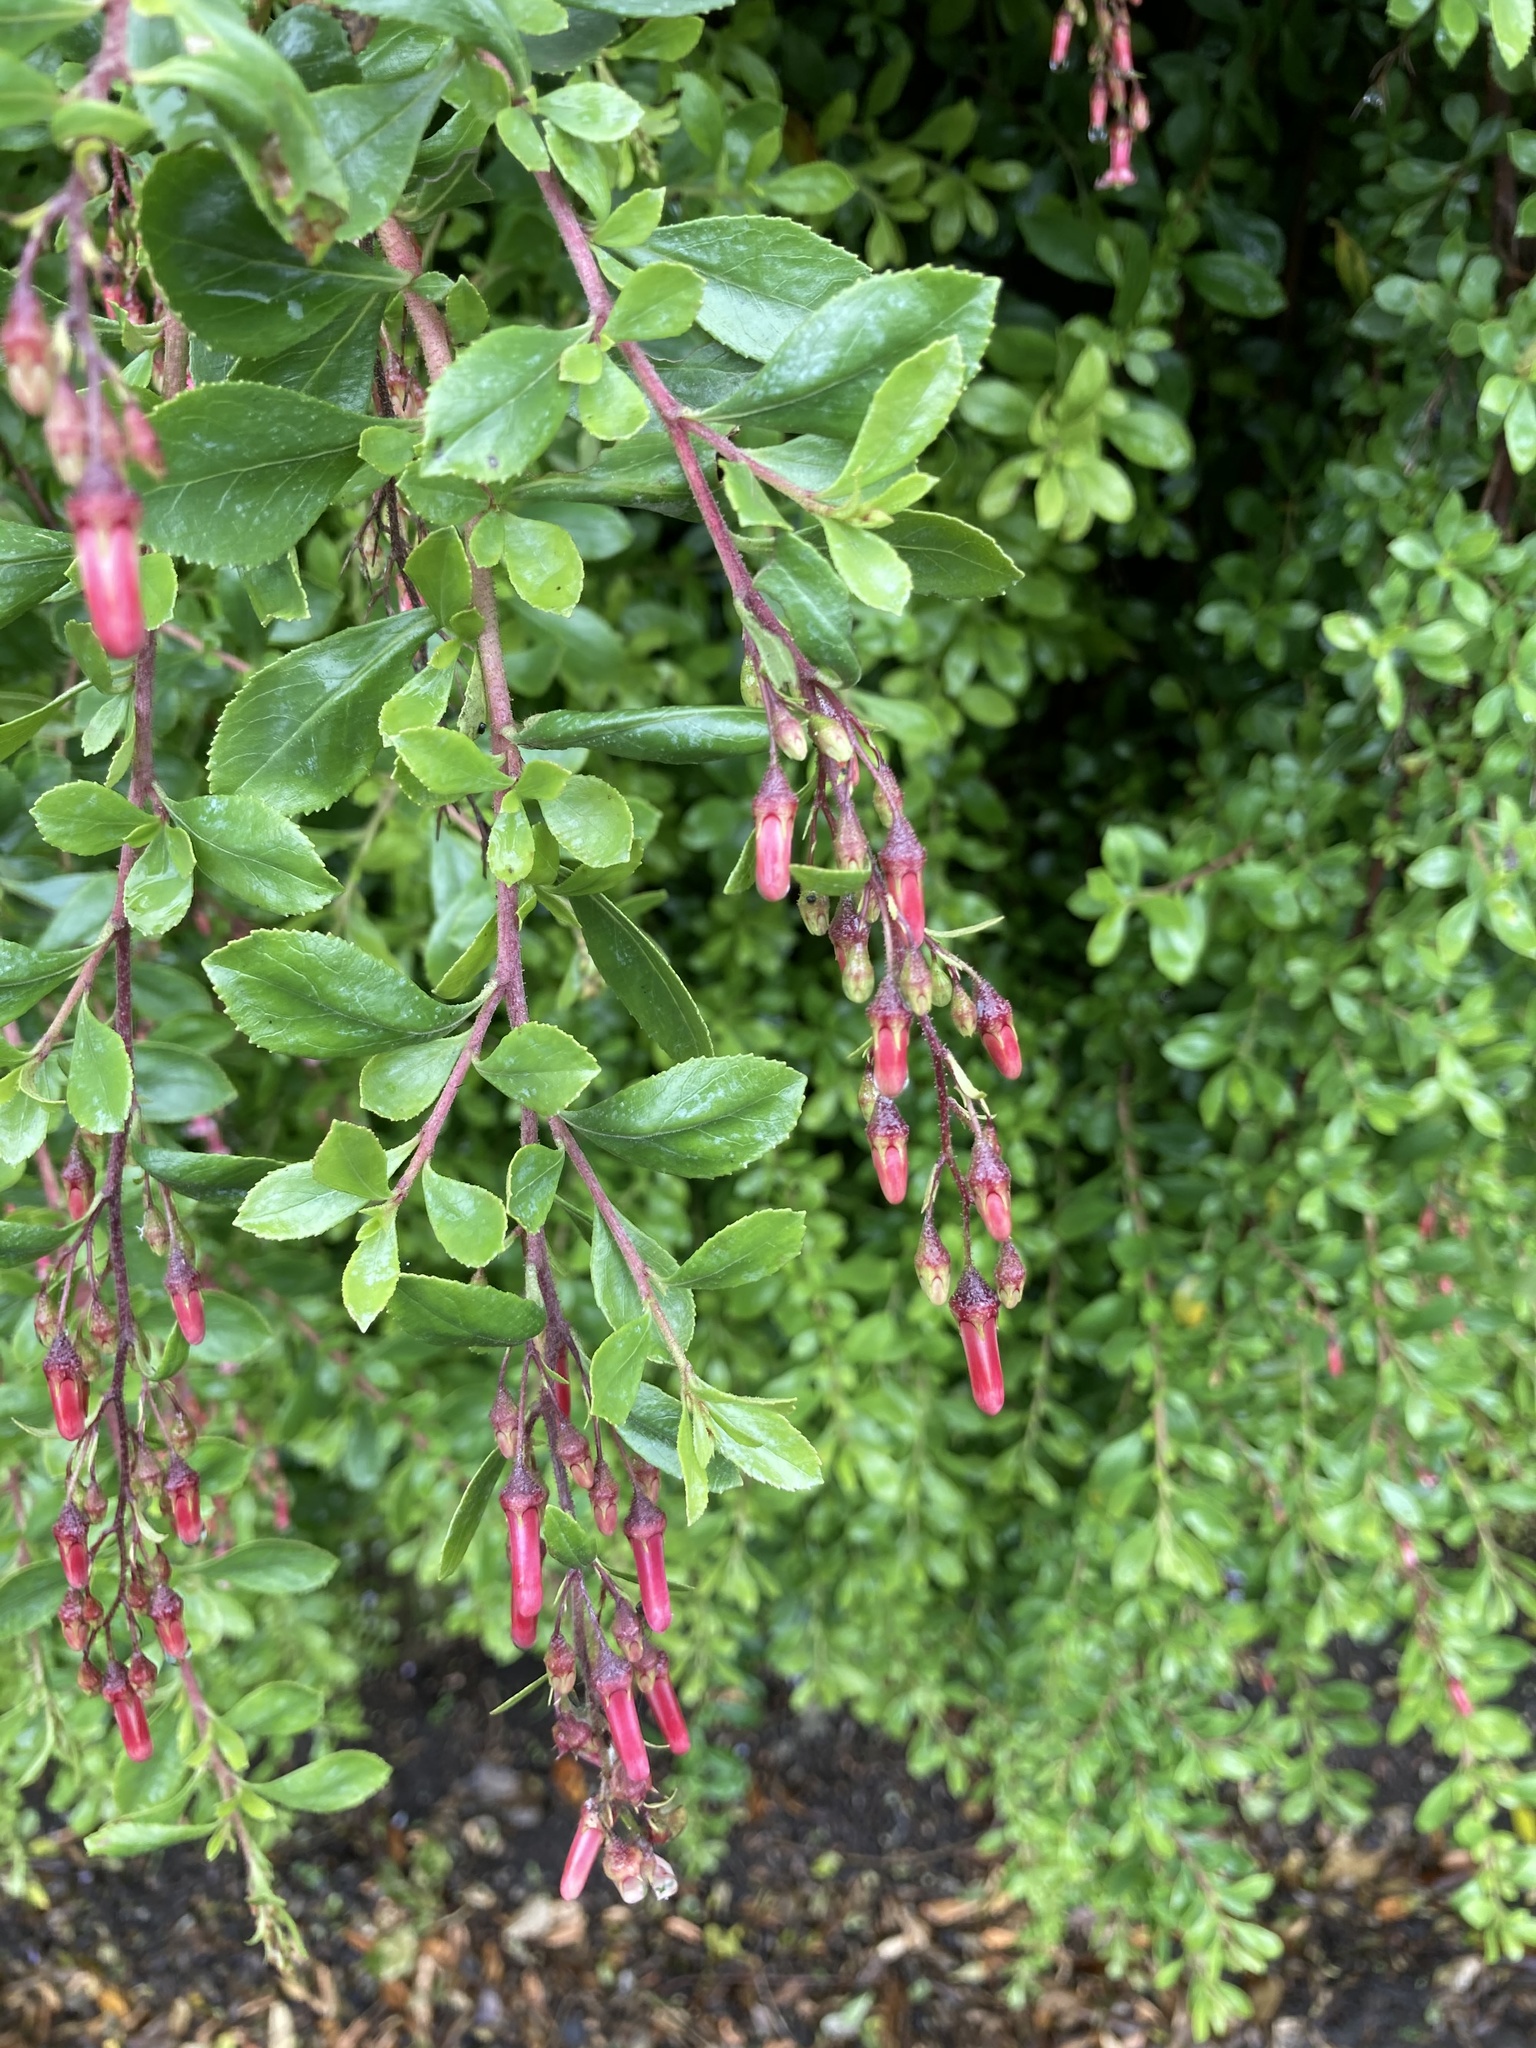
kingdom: Plantae
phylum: Tracheophyta
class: Magnoliopsida
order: Escalloniales
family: Escalloniaceae
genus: Escallonia
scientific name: Escallonia rubra
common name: Redclaws
